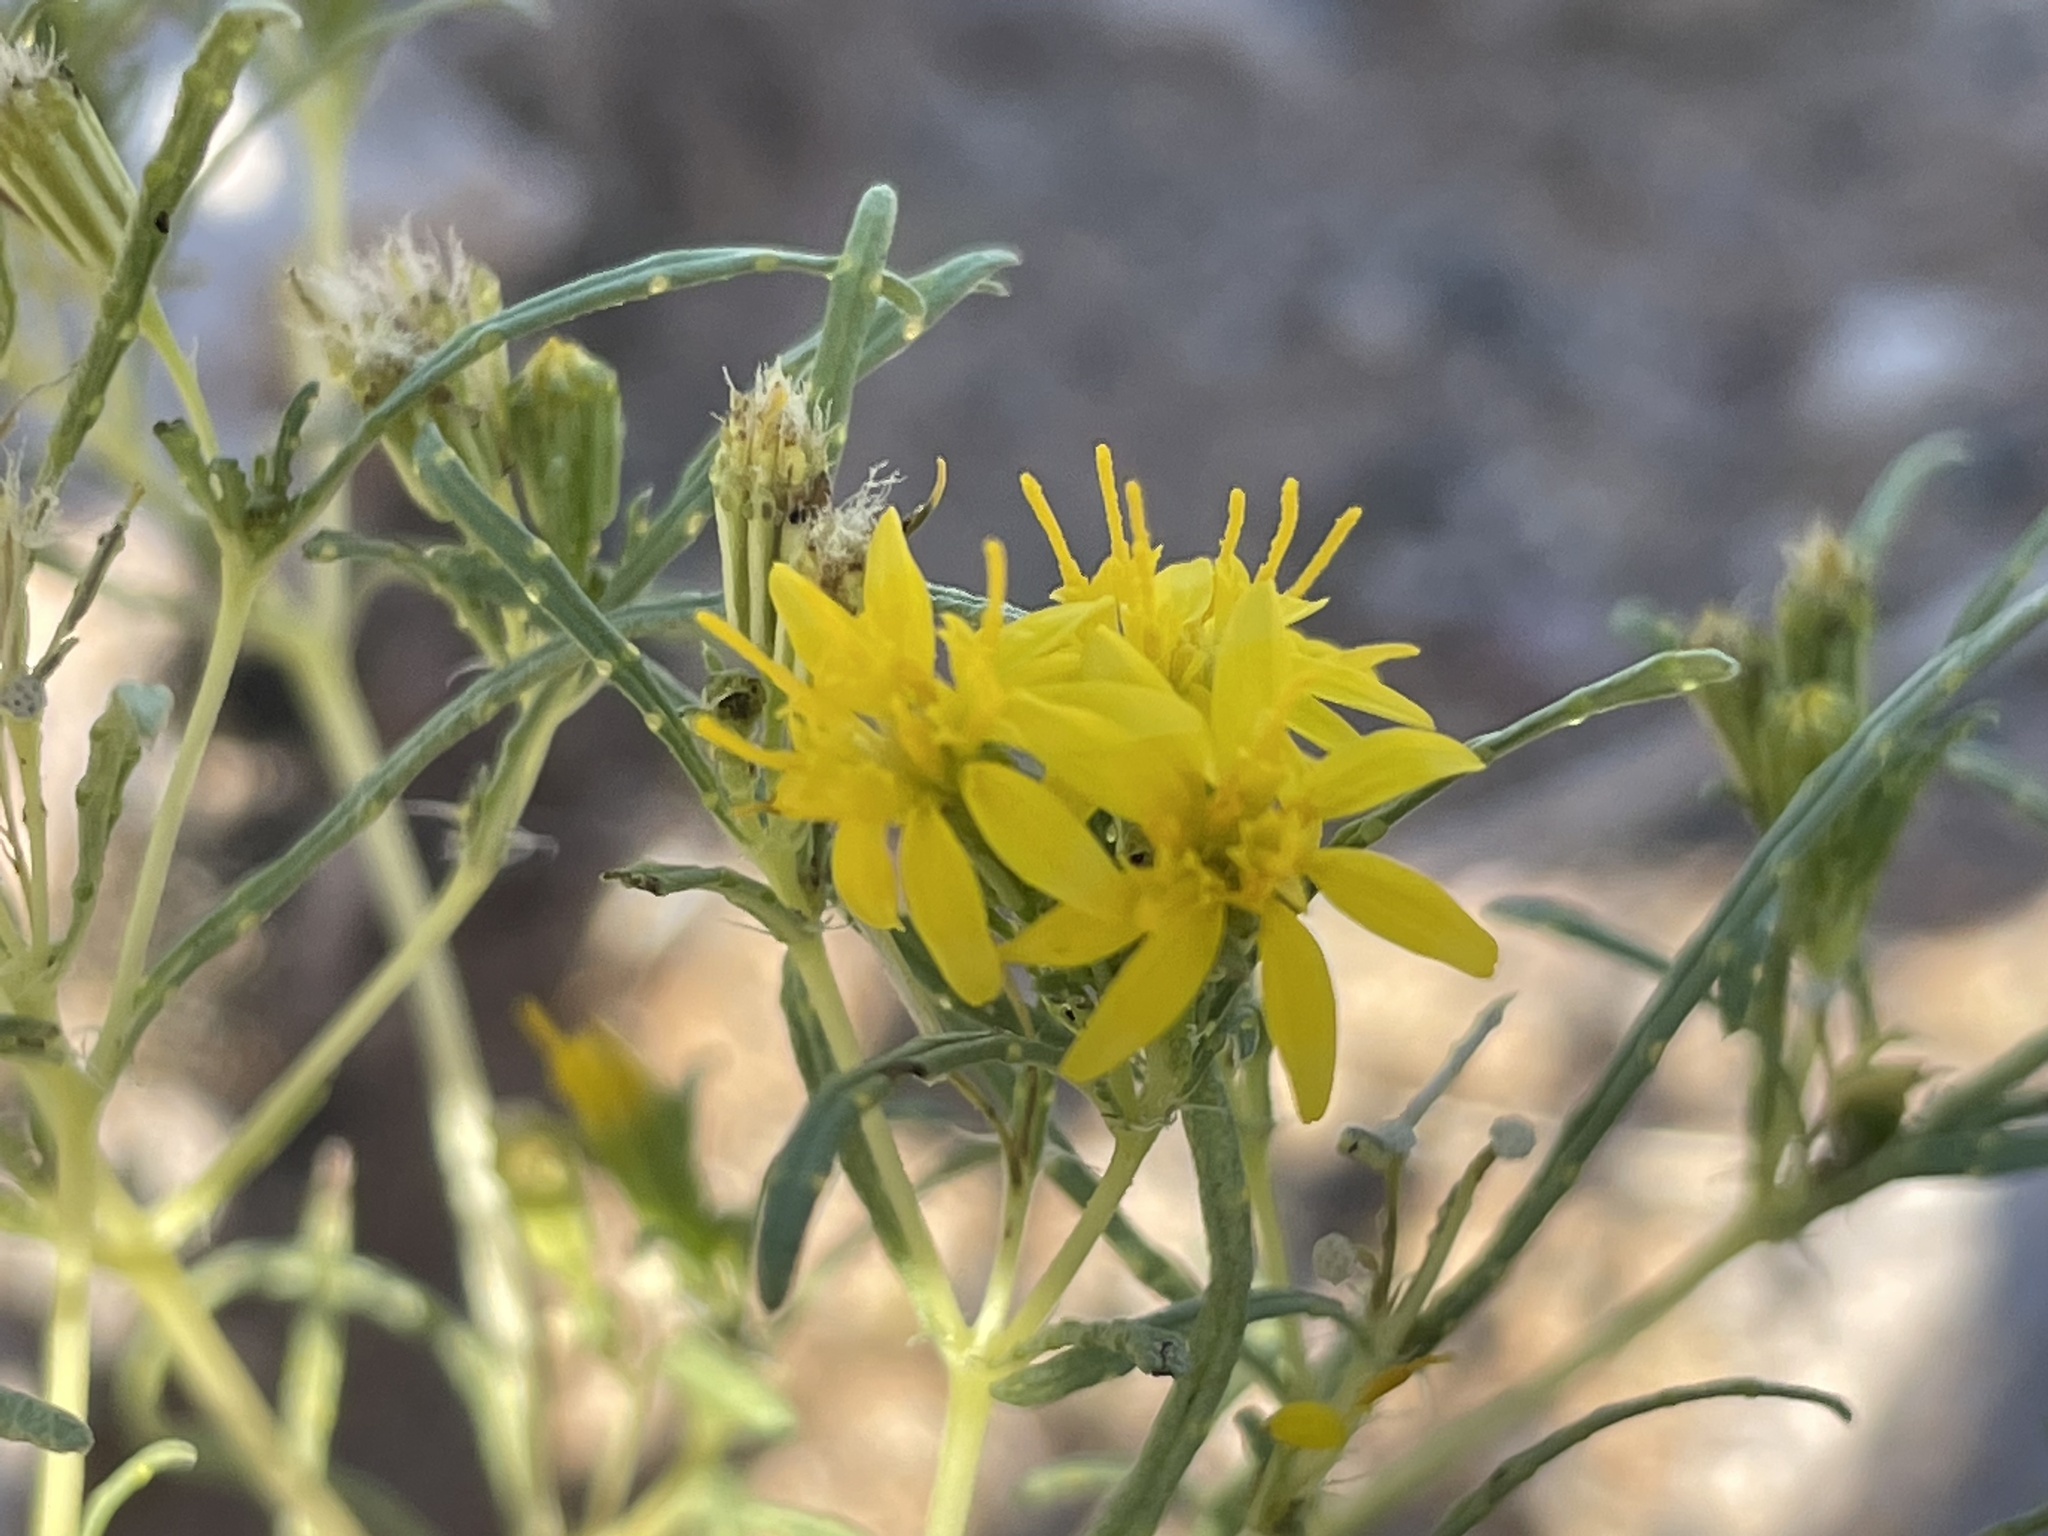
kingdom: Plantae
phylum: Tracheophyta
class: Magnoliopsida
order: Asterales
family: Asteraceae
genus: Pectis
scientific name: Pectis papposa
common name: Many-bristle chinchweed
